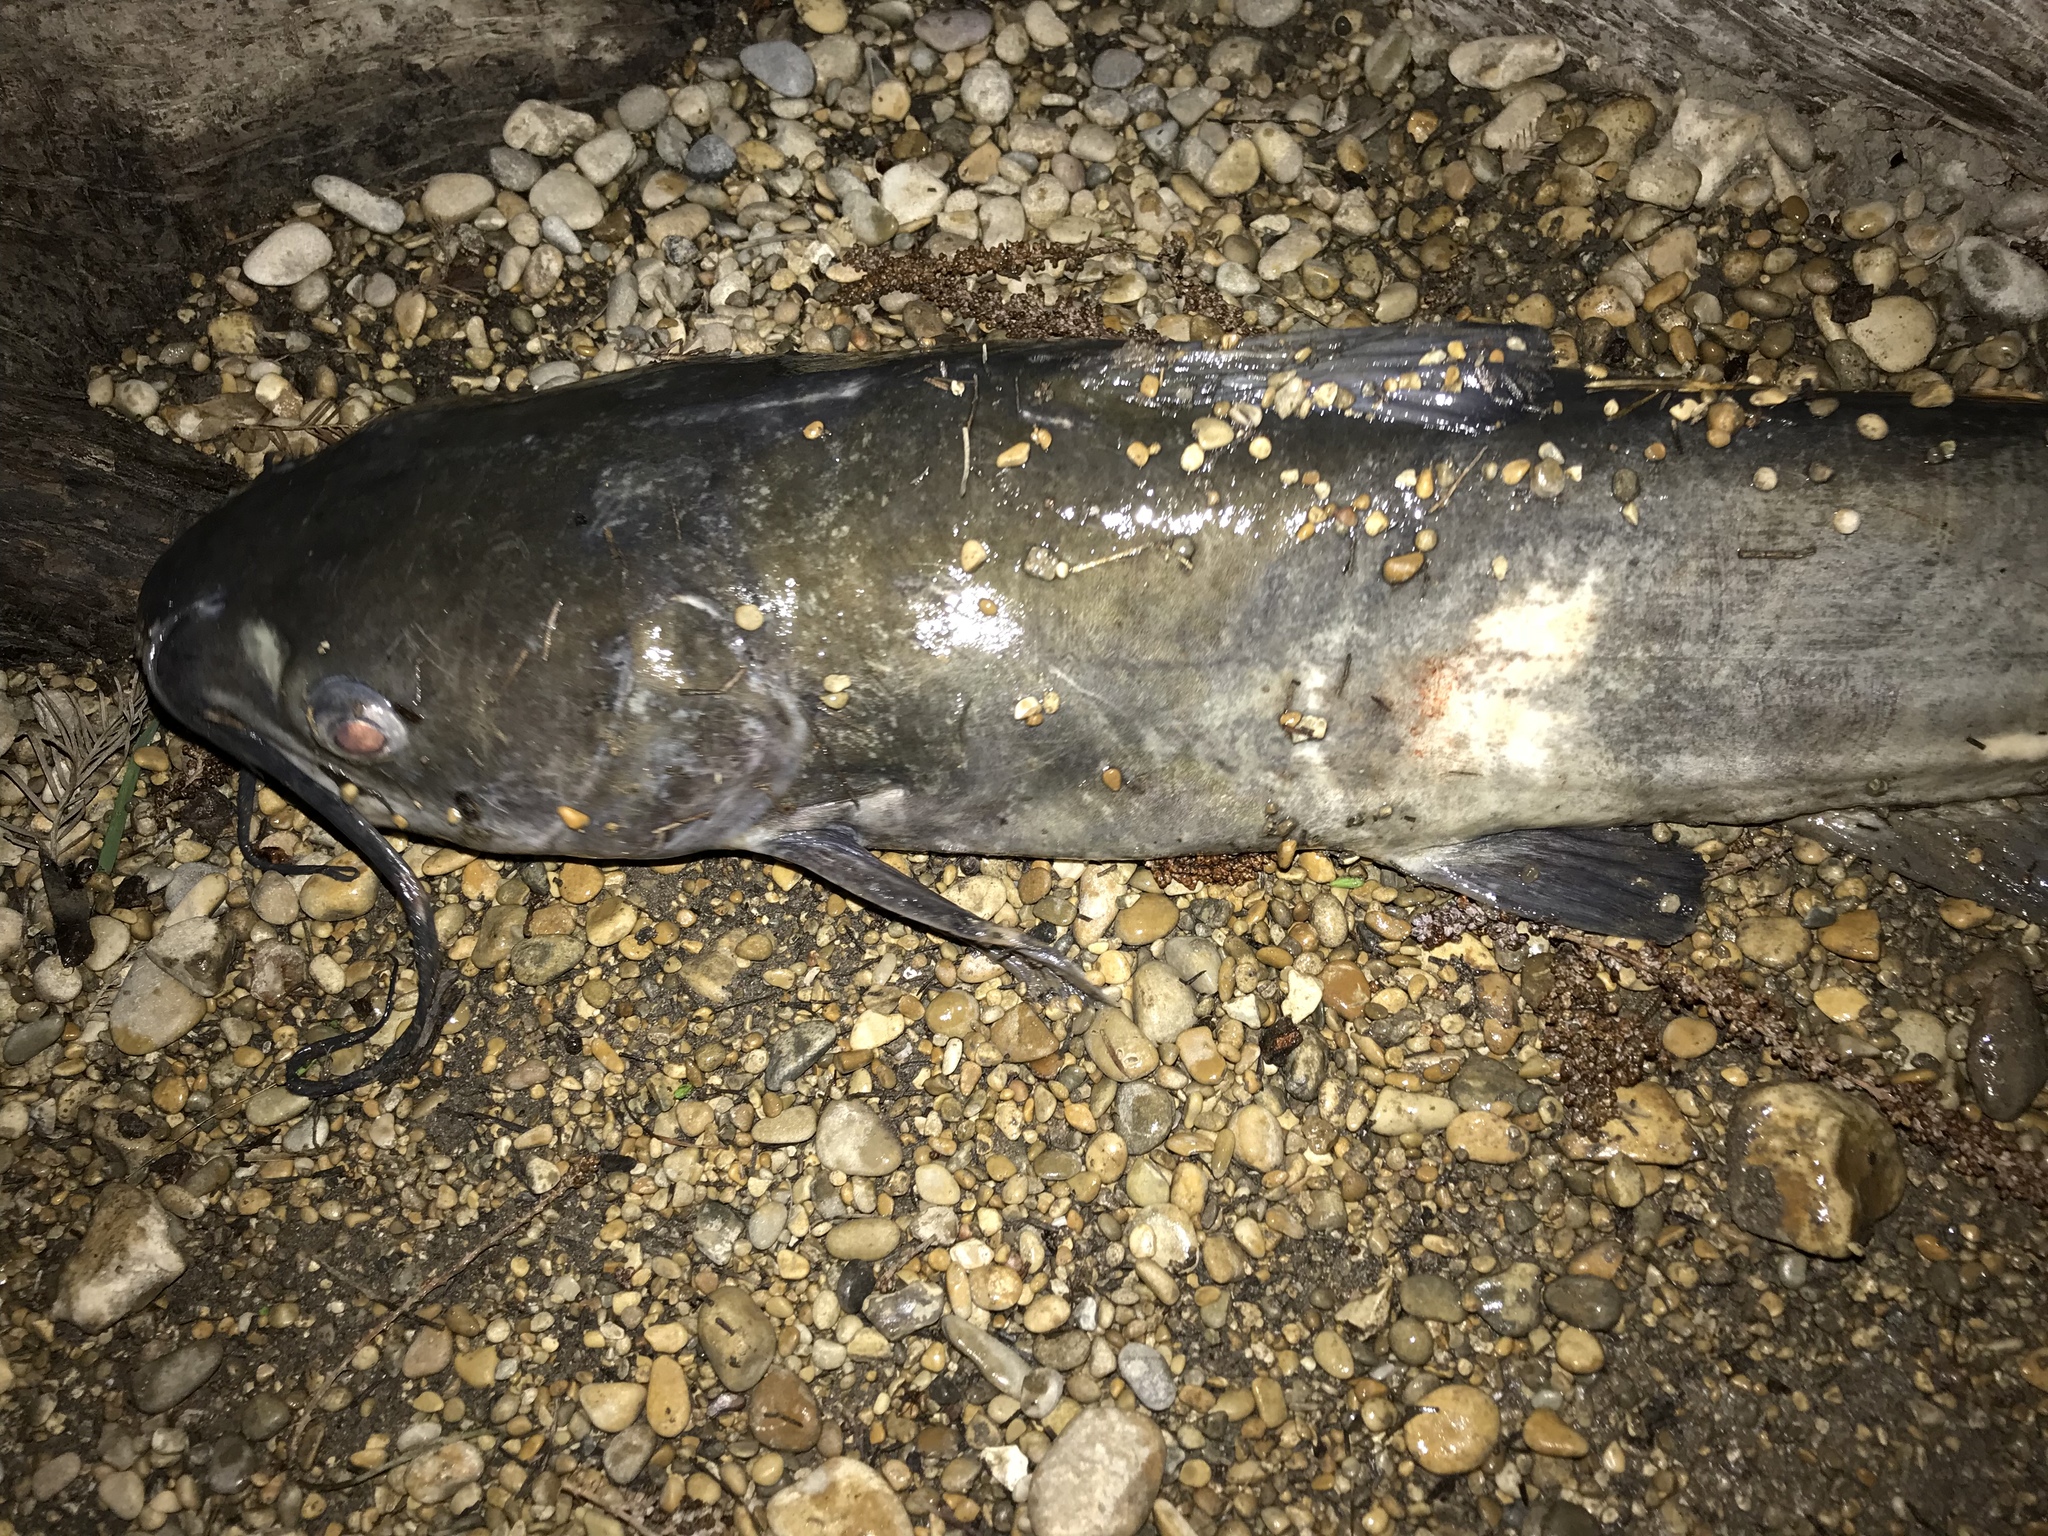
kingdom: Animalia
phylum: Chordata
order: Siluriformes
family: Ictaluridae
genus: Ictalurus
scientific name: Ictalurus punctatus
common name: Channel catfish
